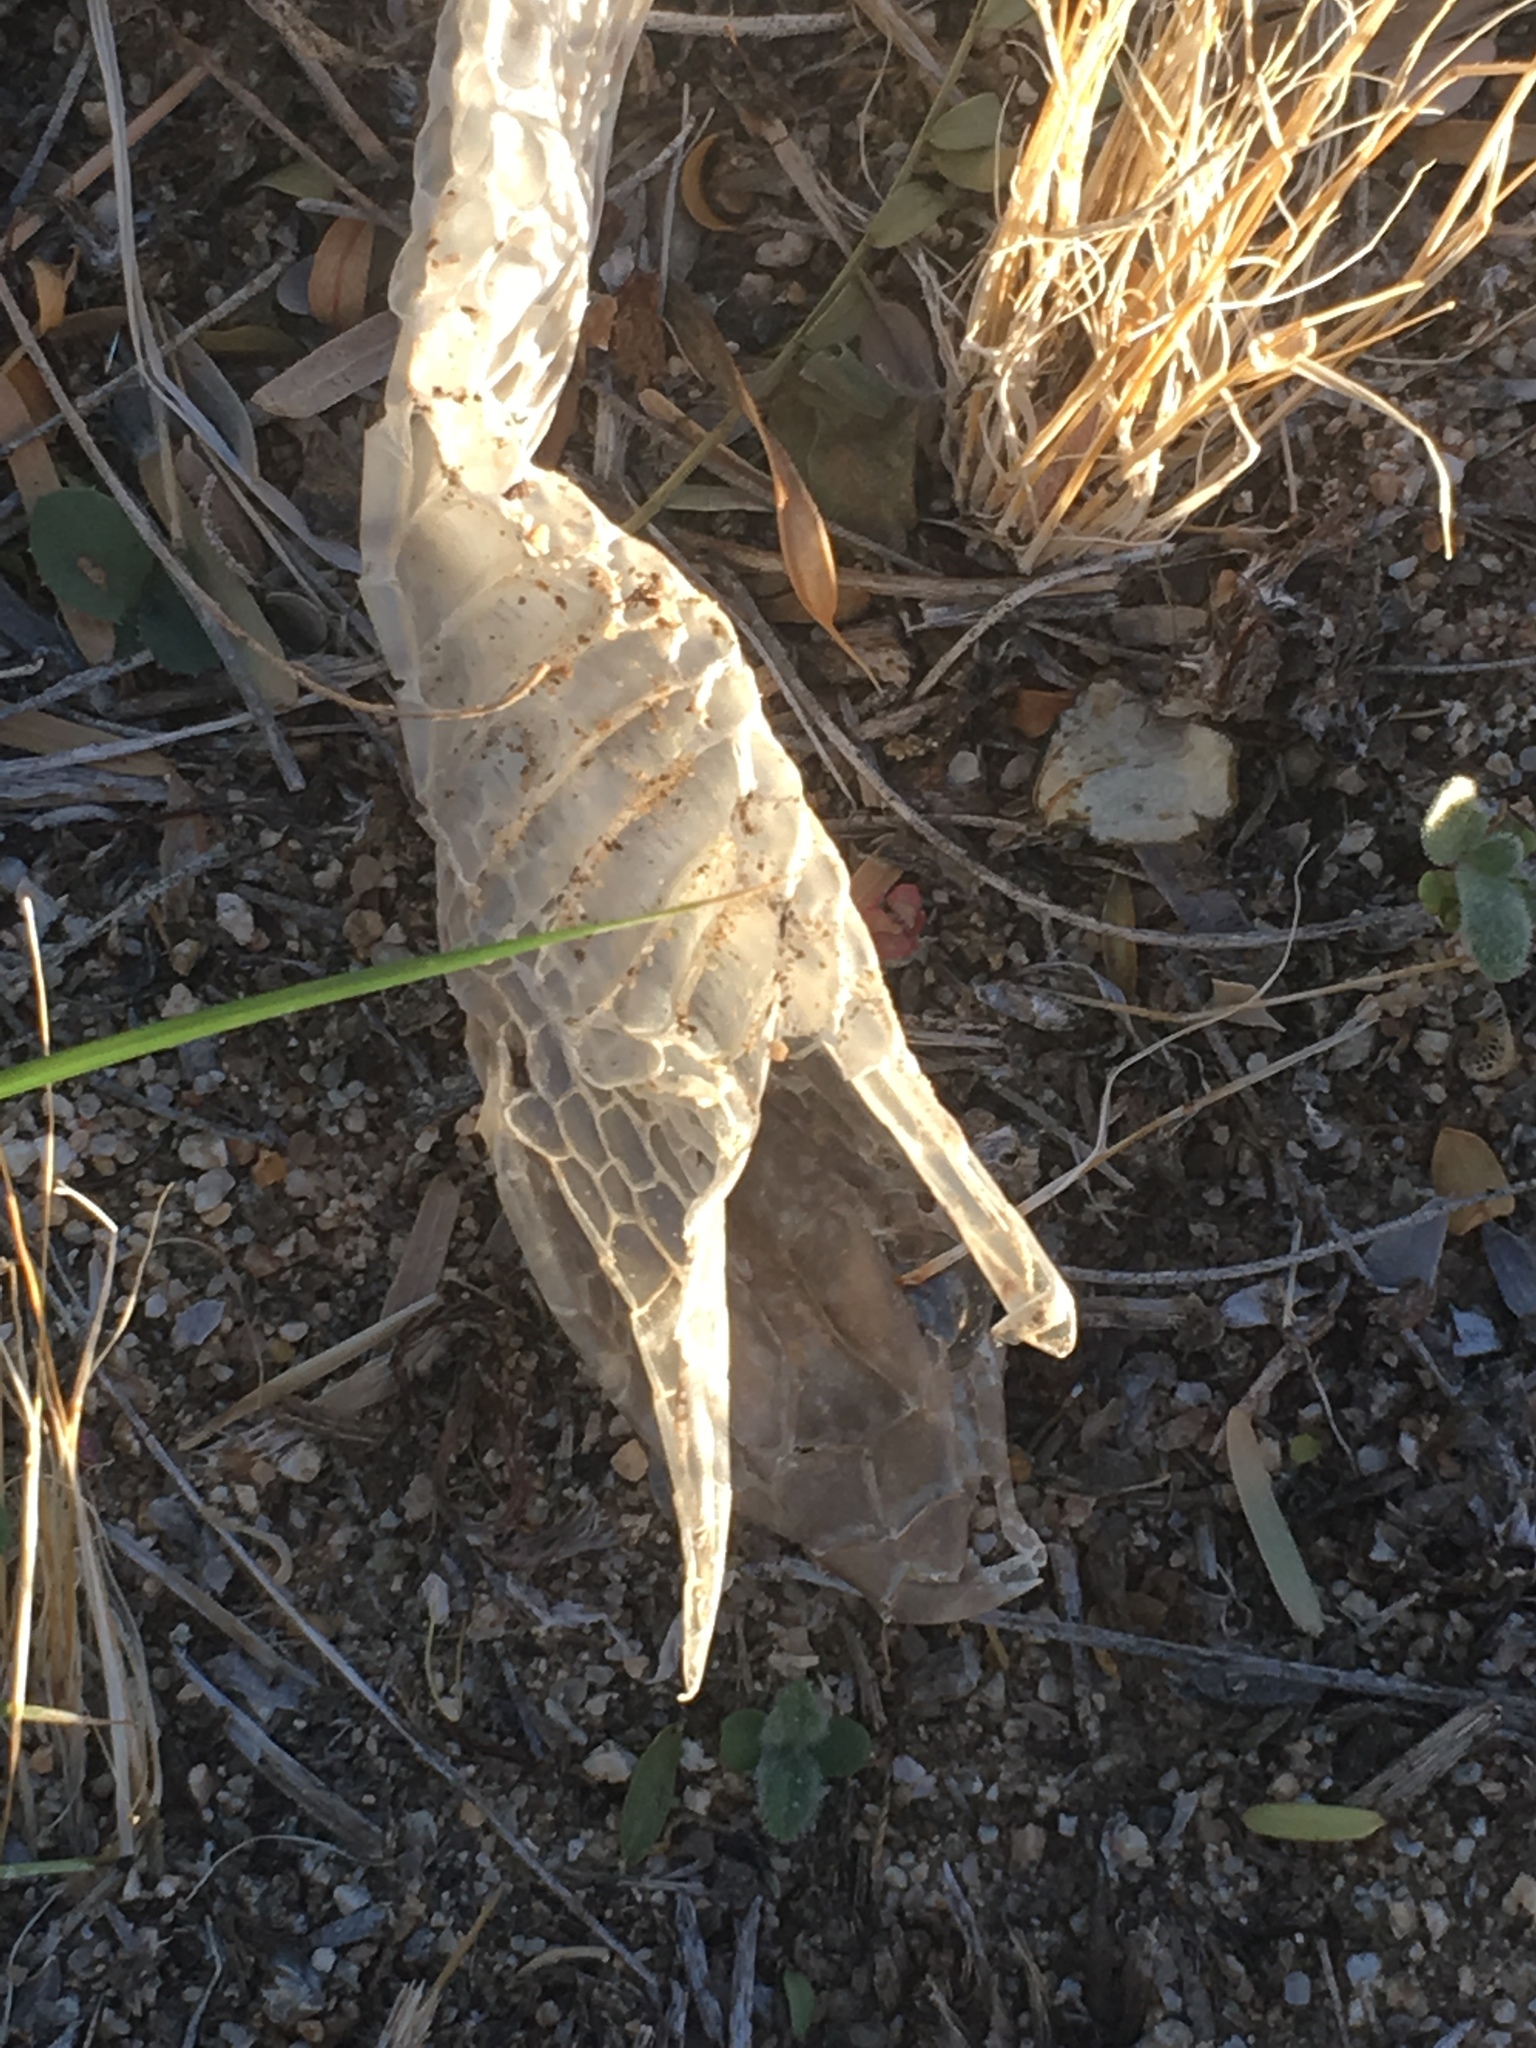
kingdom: Animalia
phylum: Chordata
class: Squamata
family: Colubridae
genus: Masticophis
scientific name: Masticophis flagellum
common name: Coachwhip
